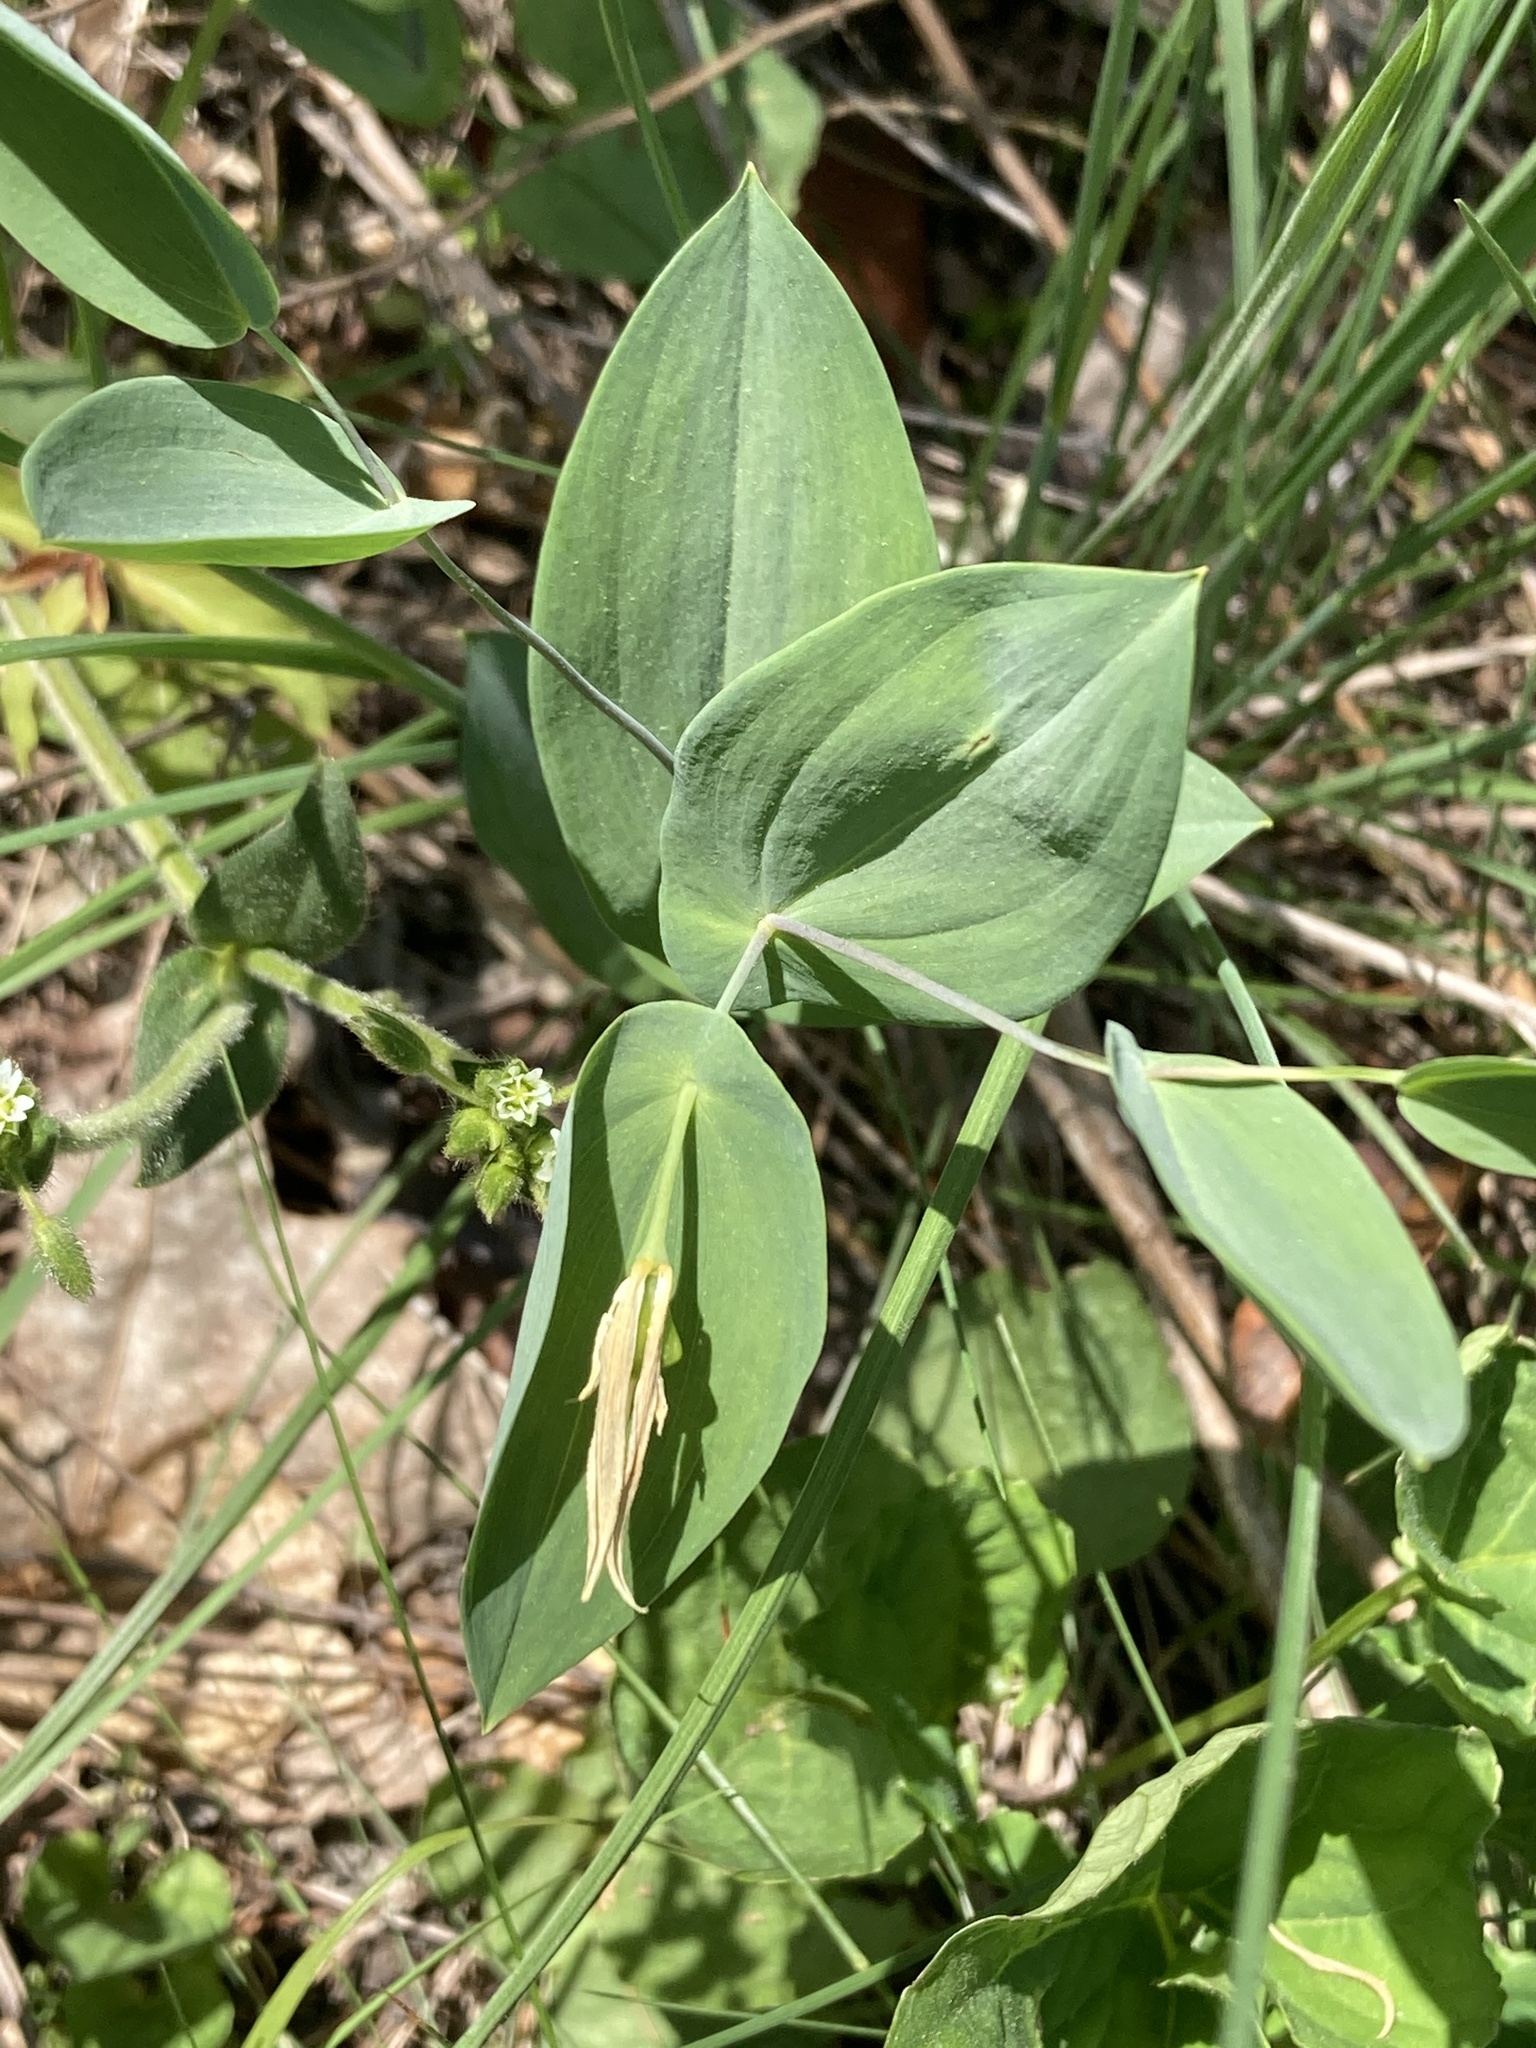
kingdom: Plantae
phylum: Tracheophyta
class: Liliopsida
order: Liliales
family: Colchicaceae
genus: Uvularia
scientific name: Uvularia perfoliata
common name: Perfoliate bellwort
